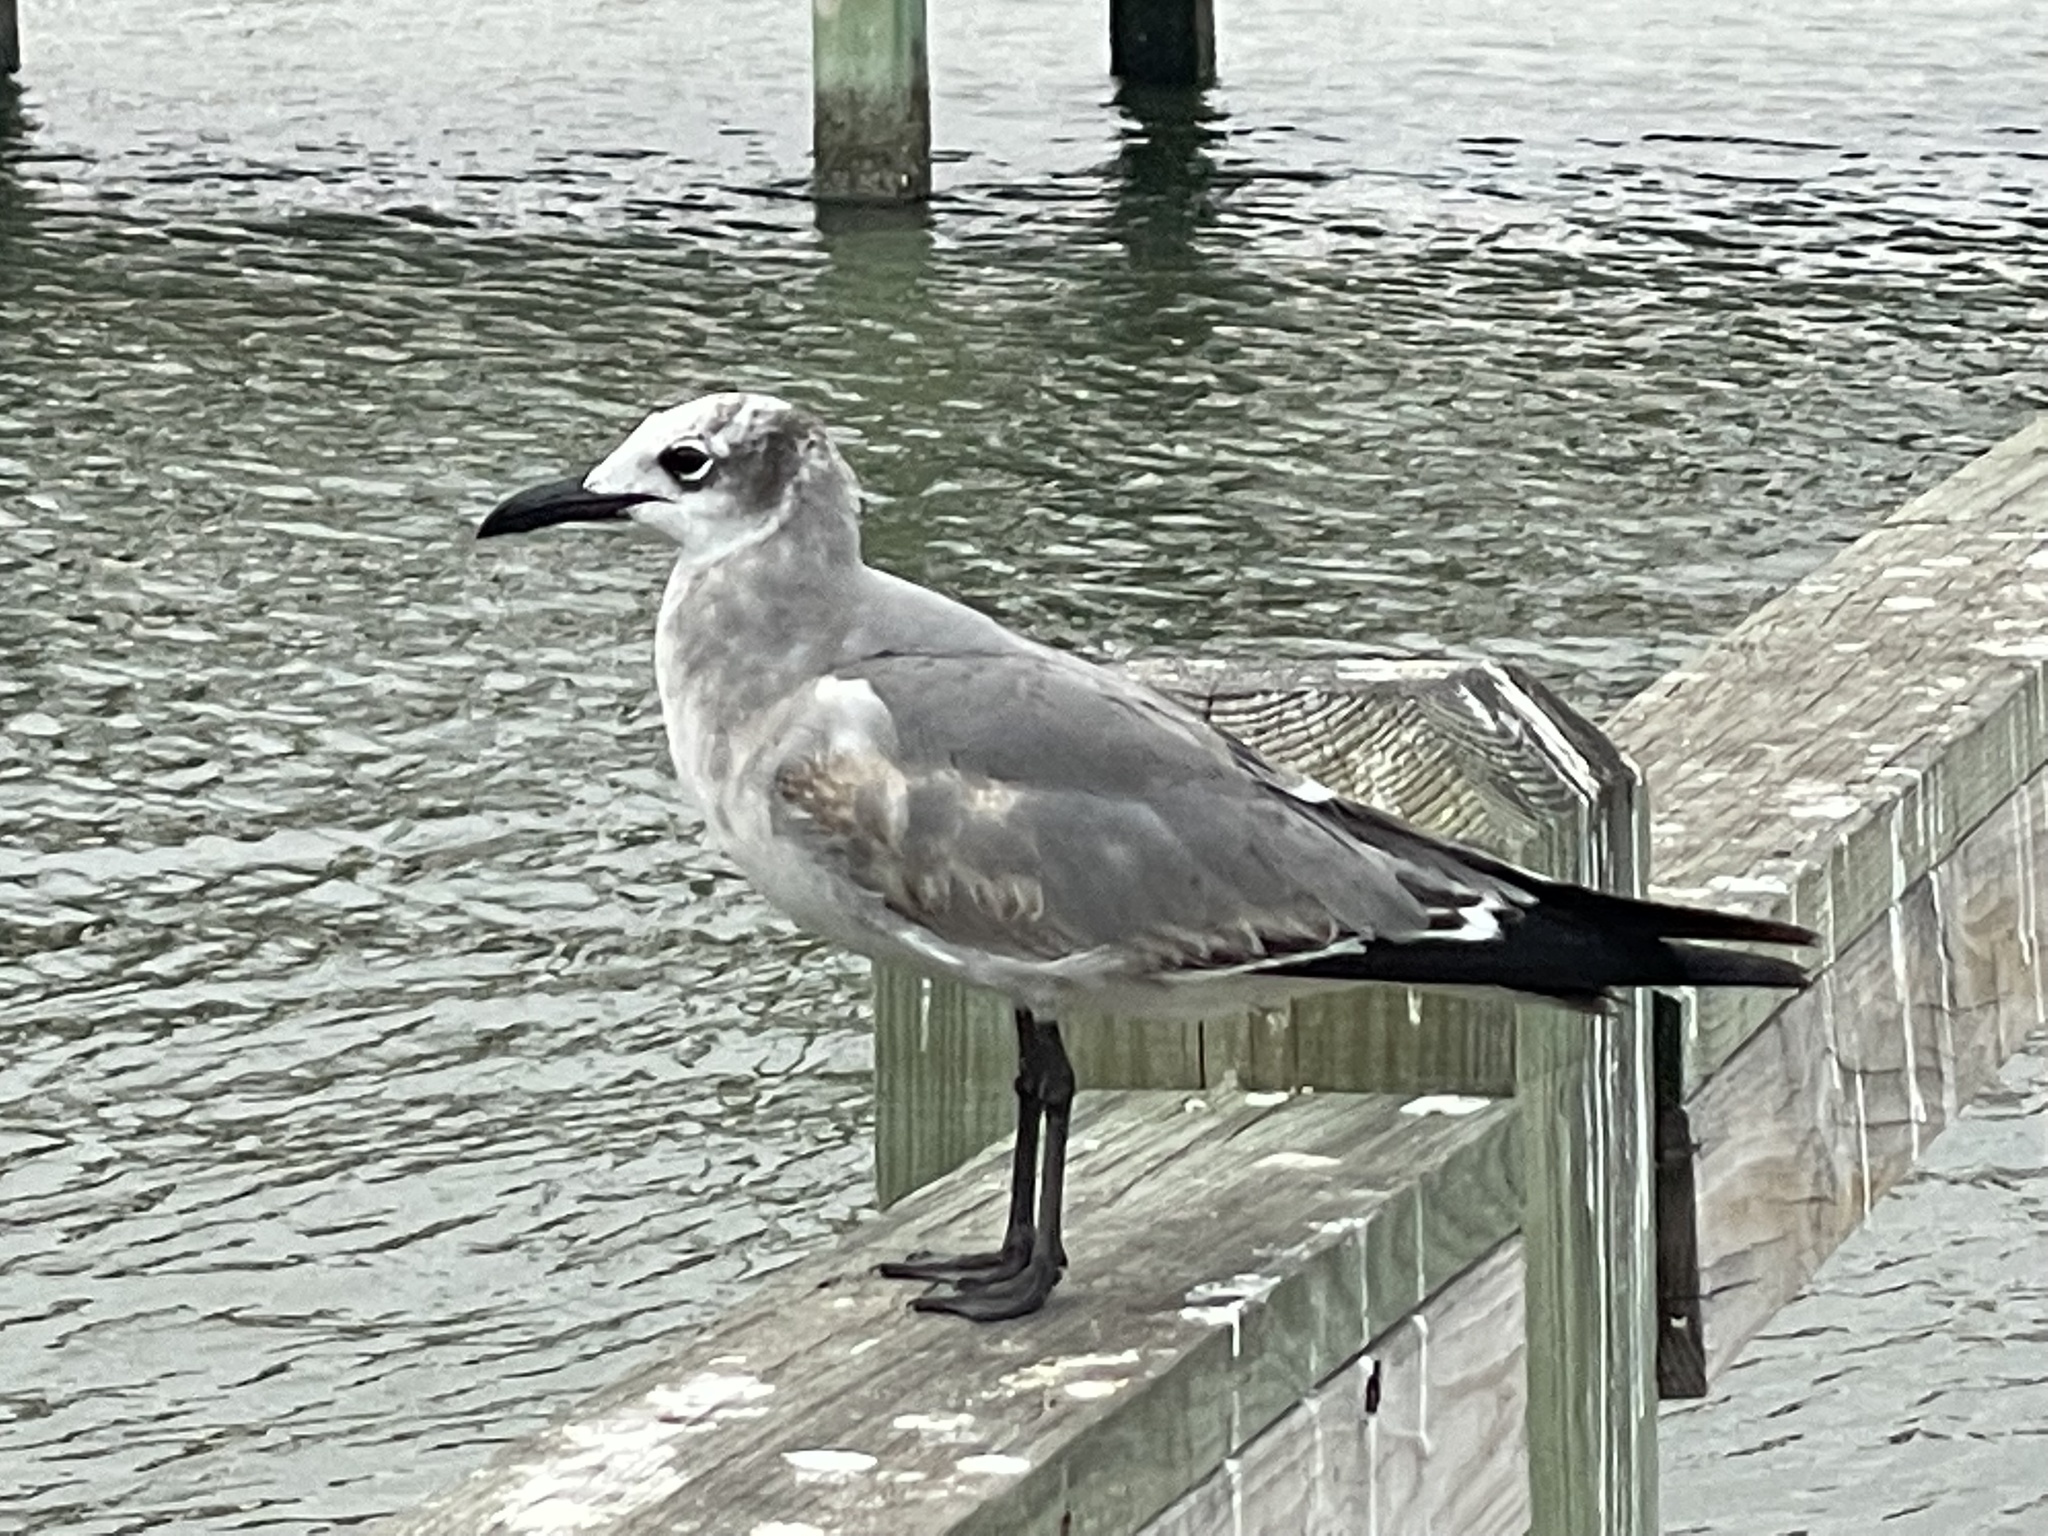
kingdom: Animalia
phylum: Chordata
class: Aves
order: Charadriiformes
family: Laridae
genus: Leucophaeus
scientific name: Leucophaeus atricilla
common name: Laughing gull
